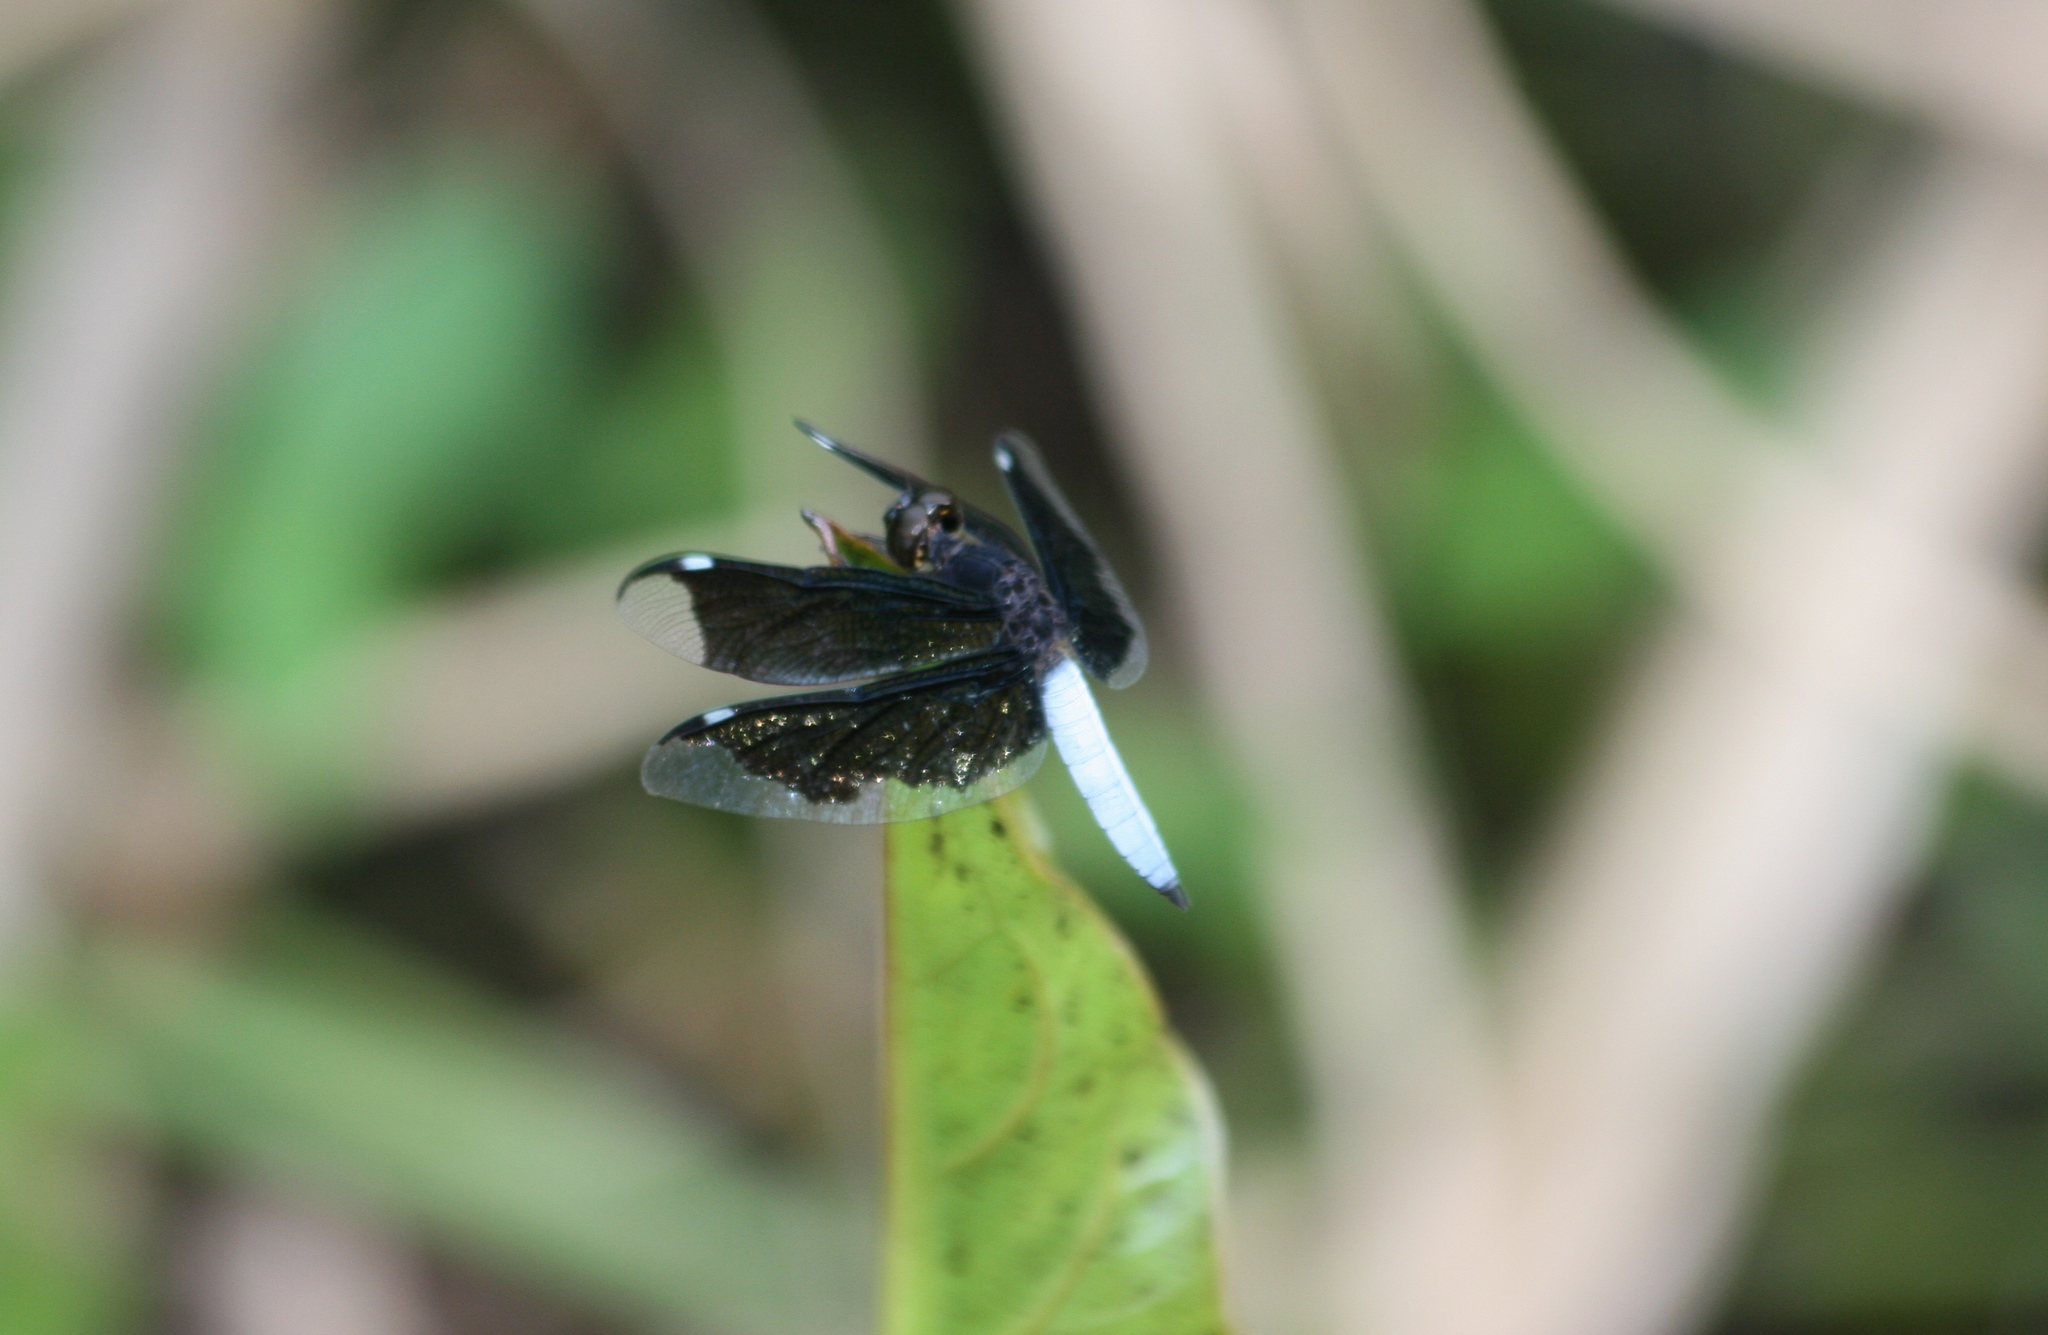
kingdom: Animalia
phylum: Arthropoda
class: Insecta
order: Odonata
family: Libellulidae
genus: Palpopleura
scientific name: Palpopleura lucia
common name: Lucia widow
